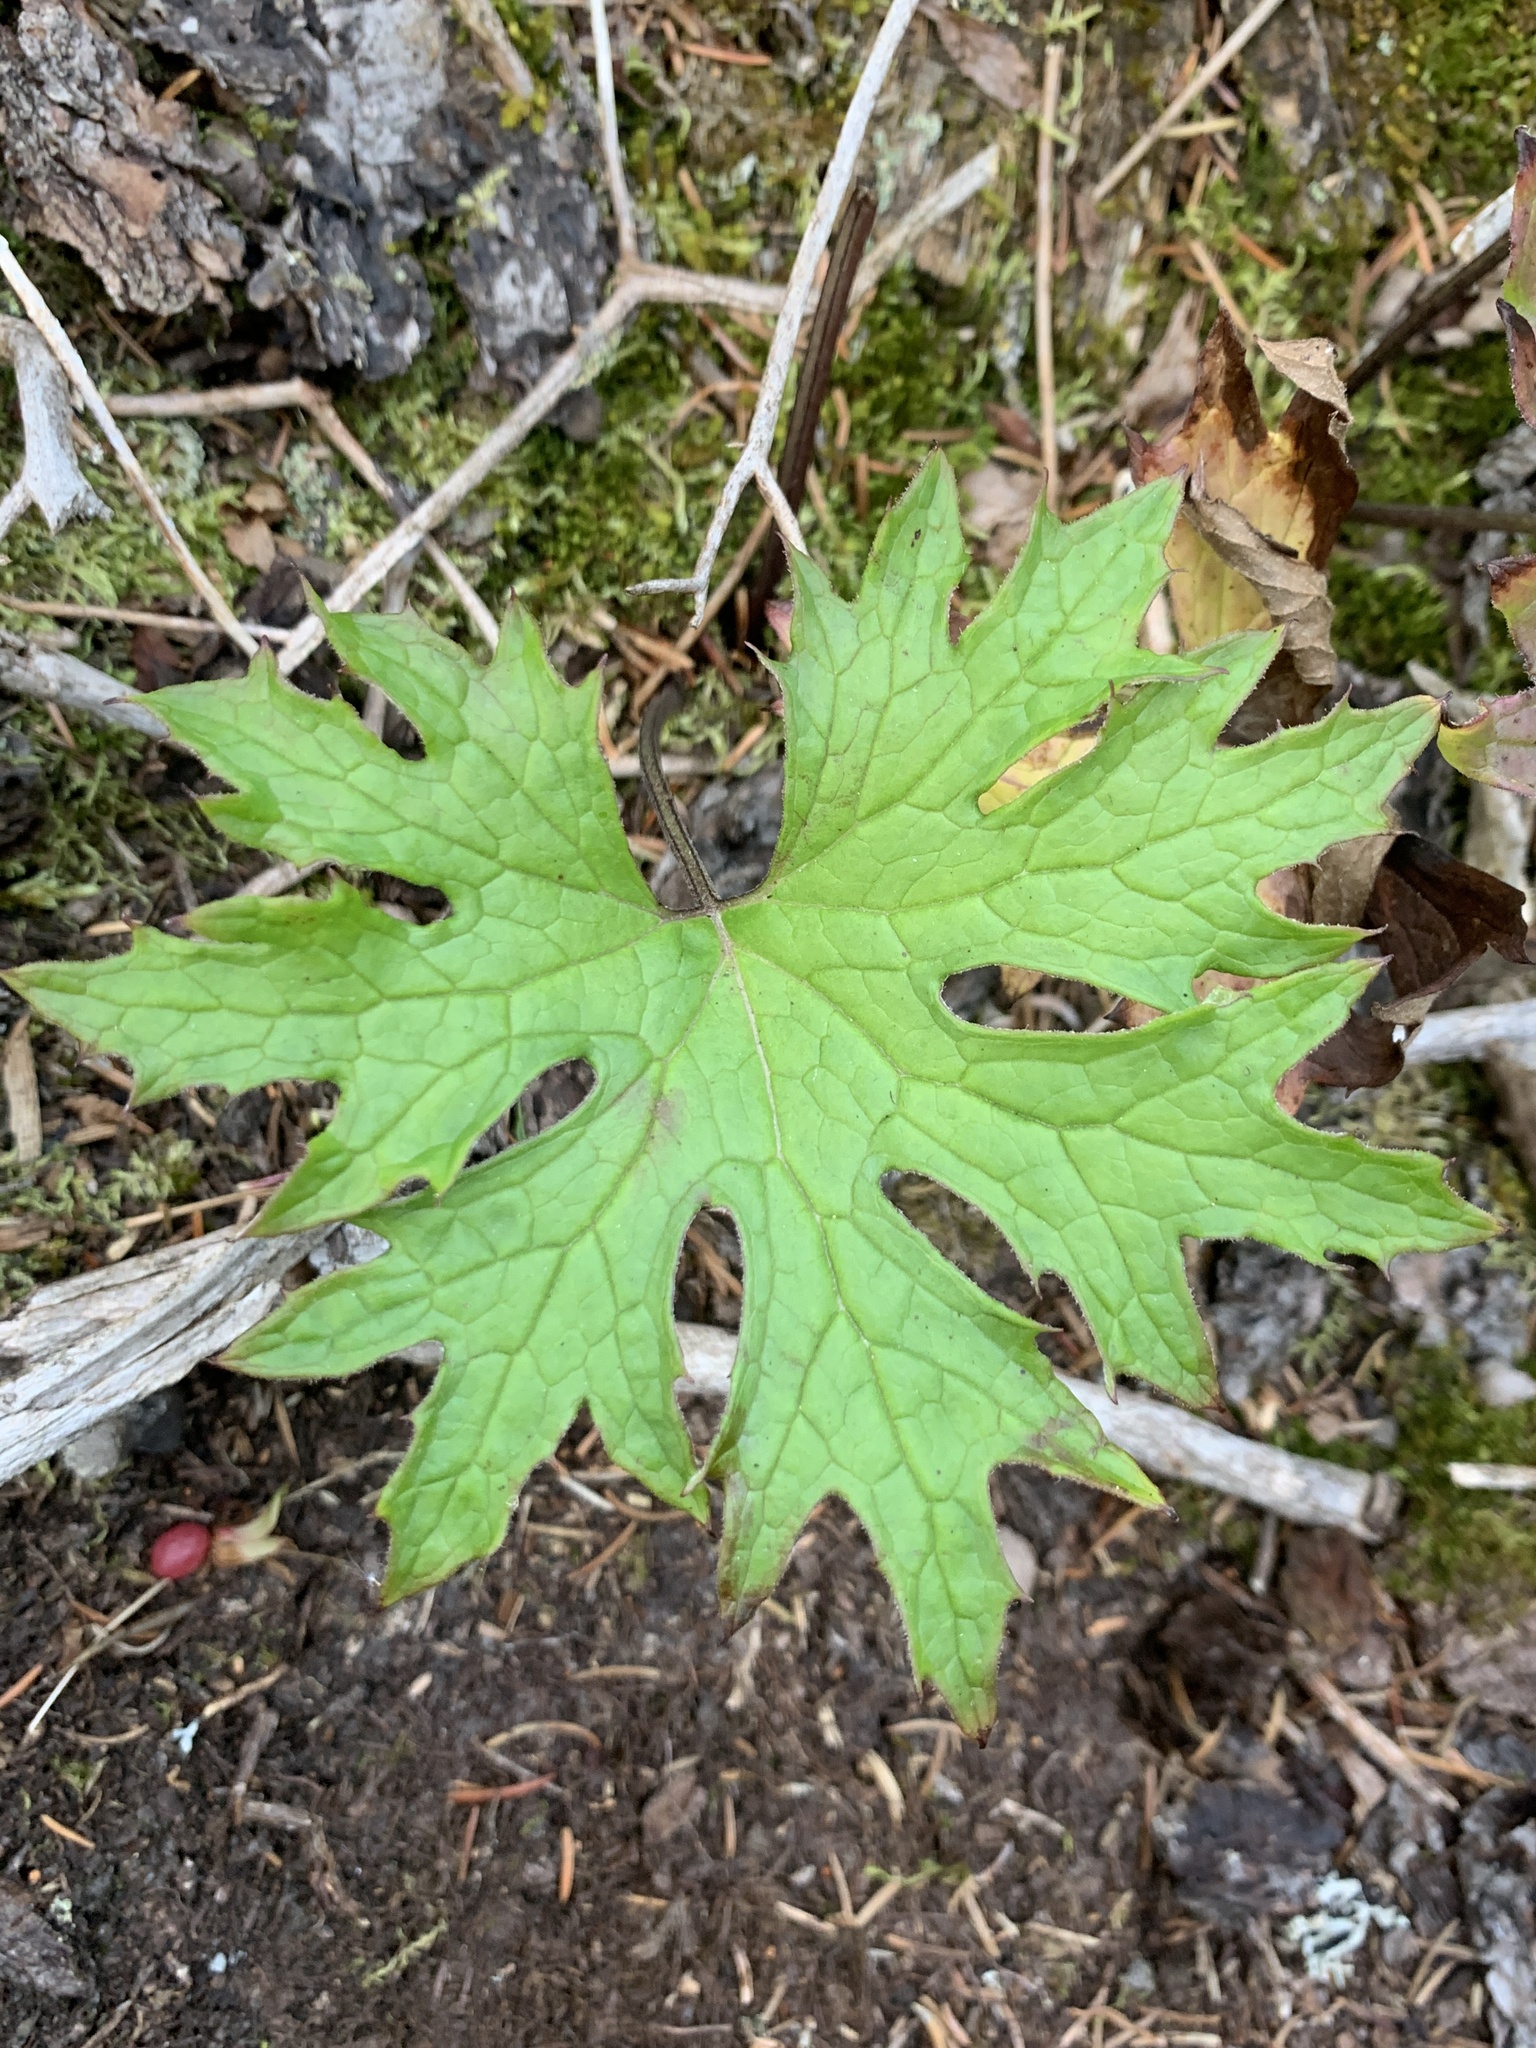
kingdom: Plantae
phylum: Tracheophyta
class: Magnoliopsida
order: Asterales
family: Asteraceae
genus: Petasites
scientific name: Petasites frigidus
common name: Arctic butterbur
